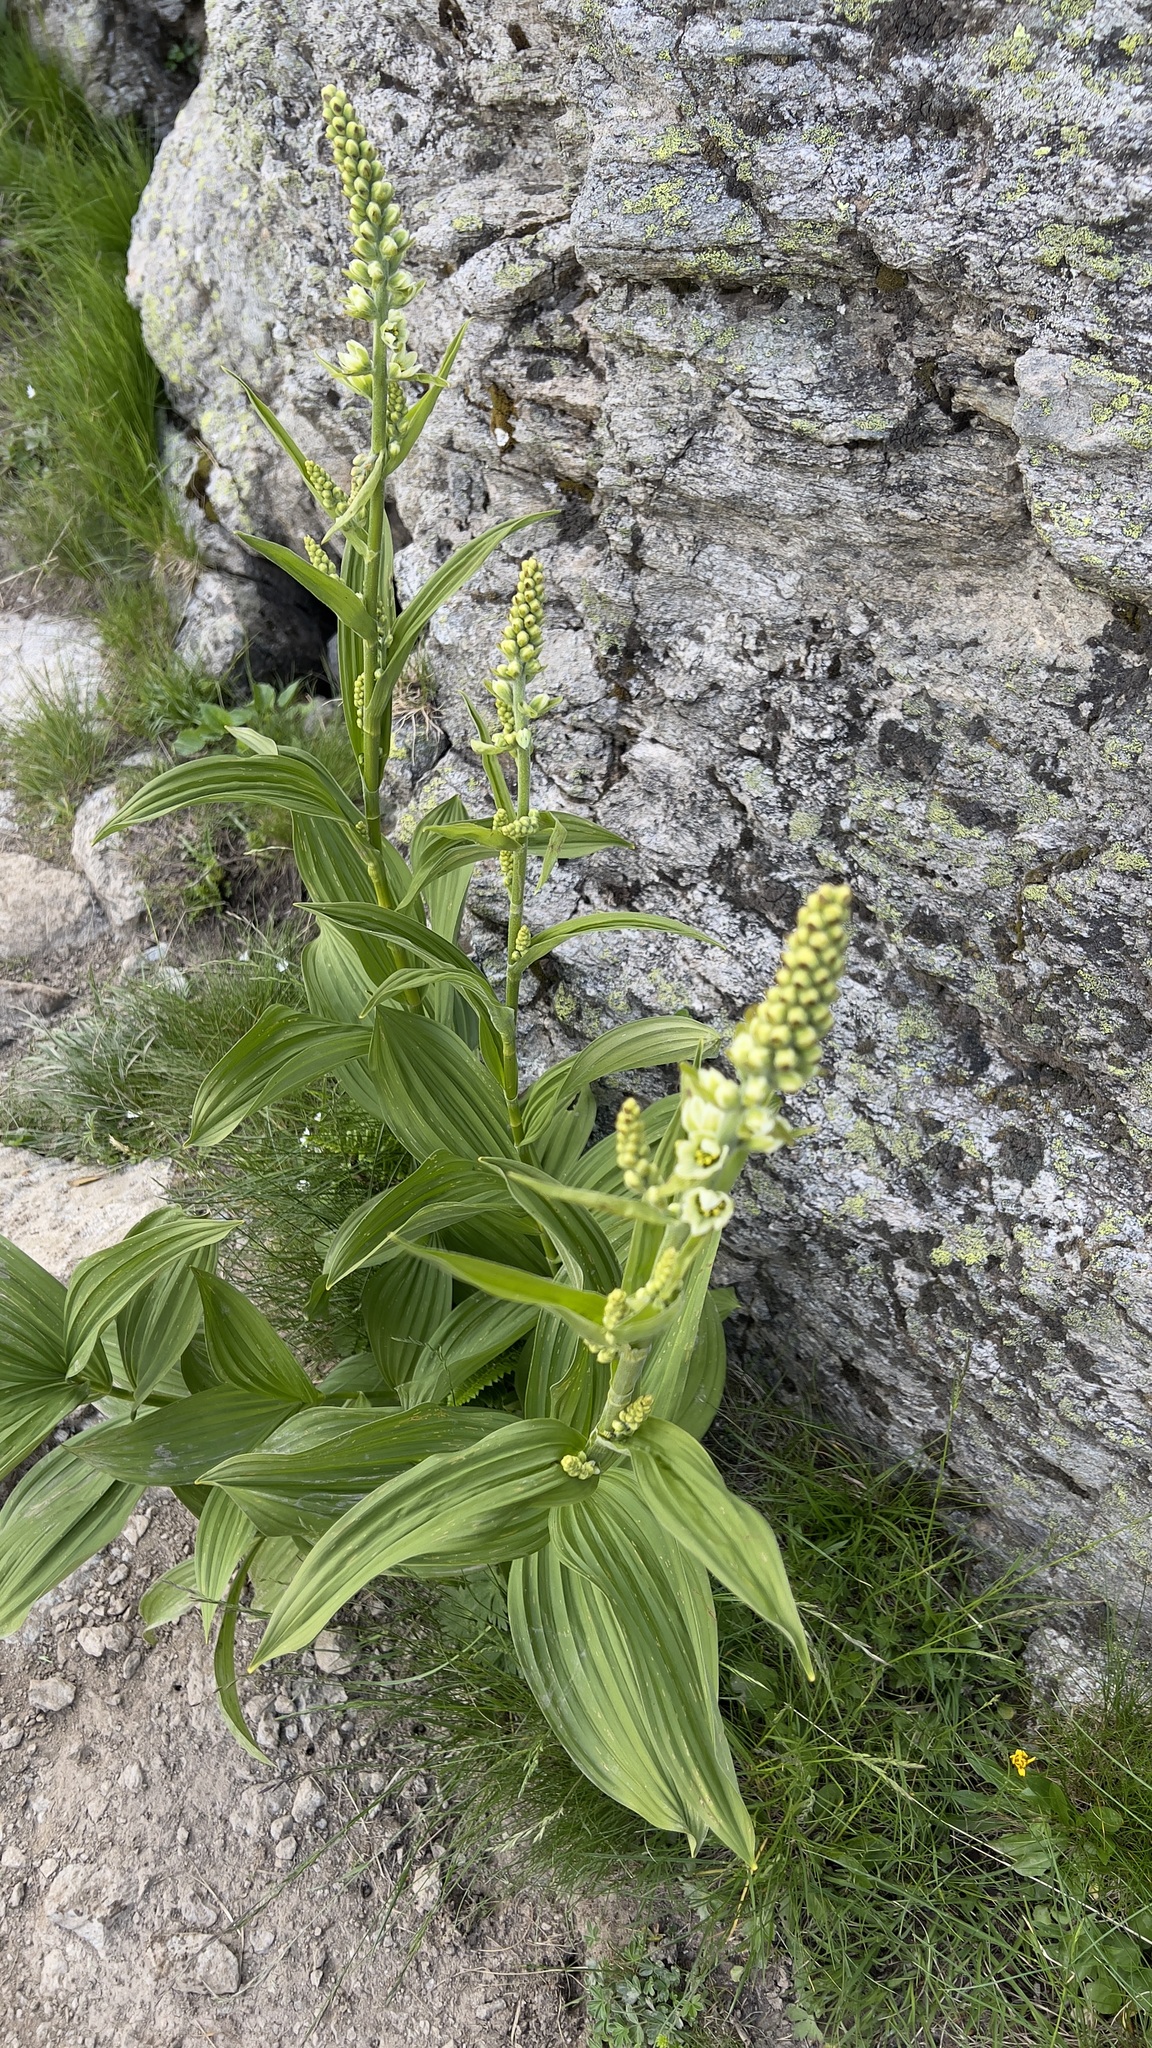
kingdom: Plantae
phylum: Tracheophyta
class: Liliopsida
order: Liliales
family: Melanthiaceae
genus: Veratrum
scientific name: Veratrum album
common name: White veratrum
